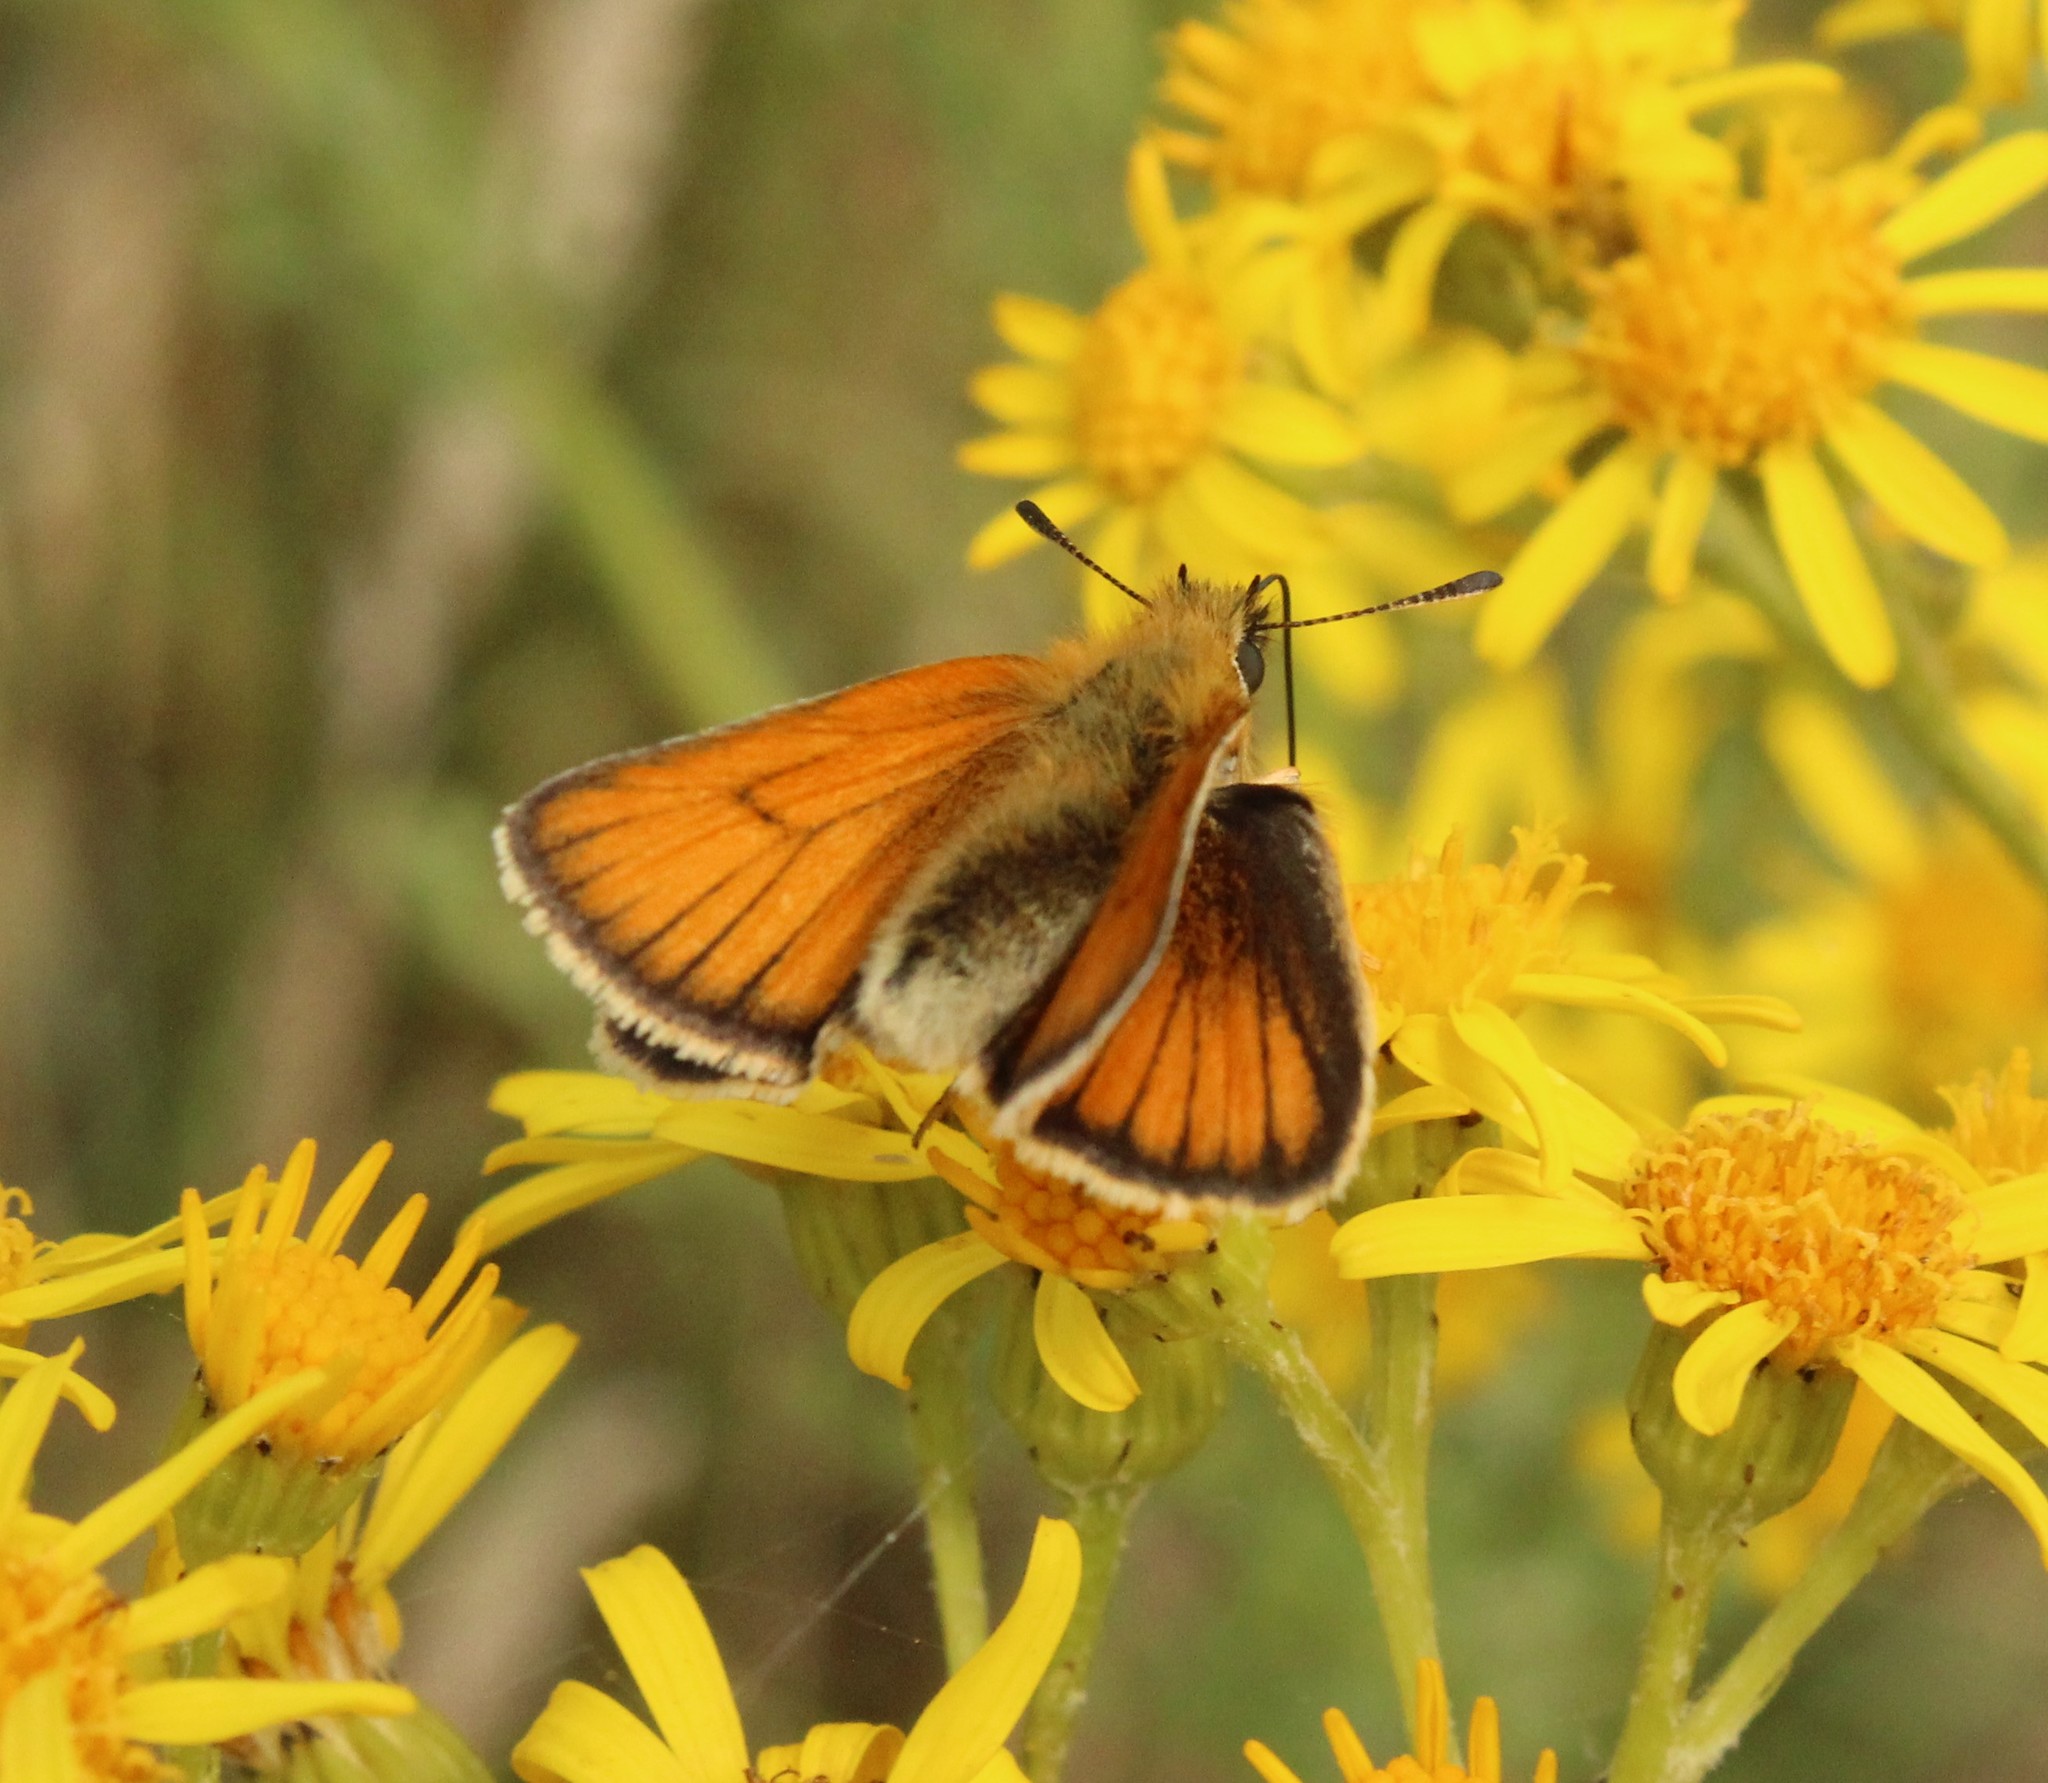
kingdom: Animalia
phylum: Arthropoda
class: Insecta
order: Lepidoptera
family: Hesperiidae
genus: Thymelicus
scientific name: Thymelicus lineola
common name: Essex skipper
